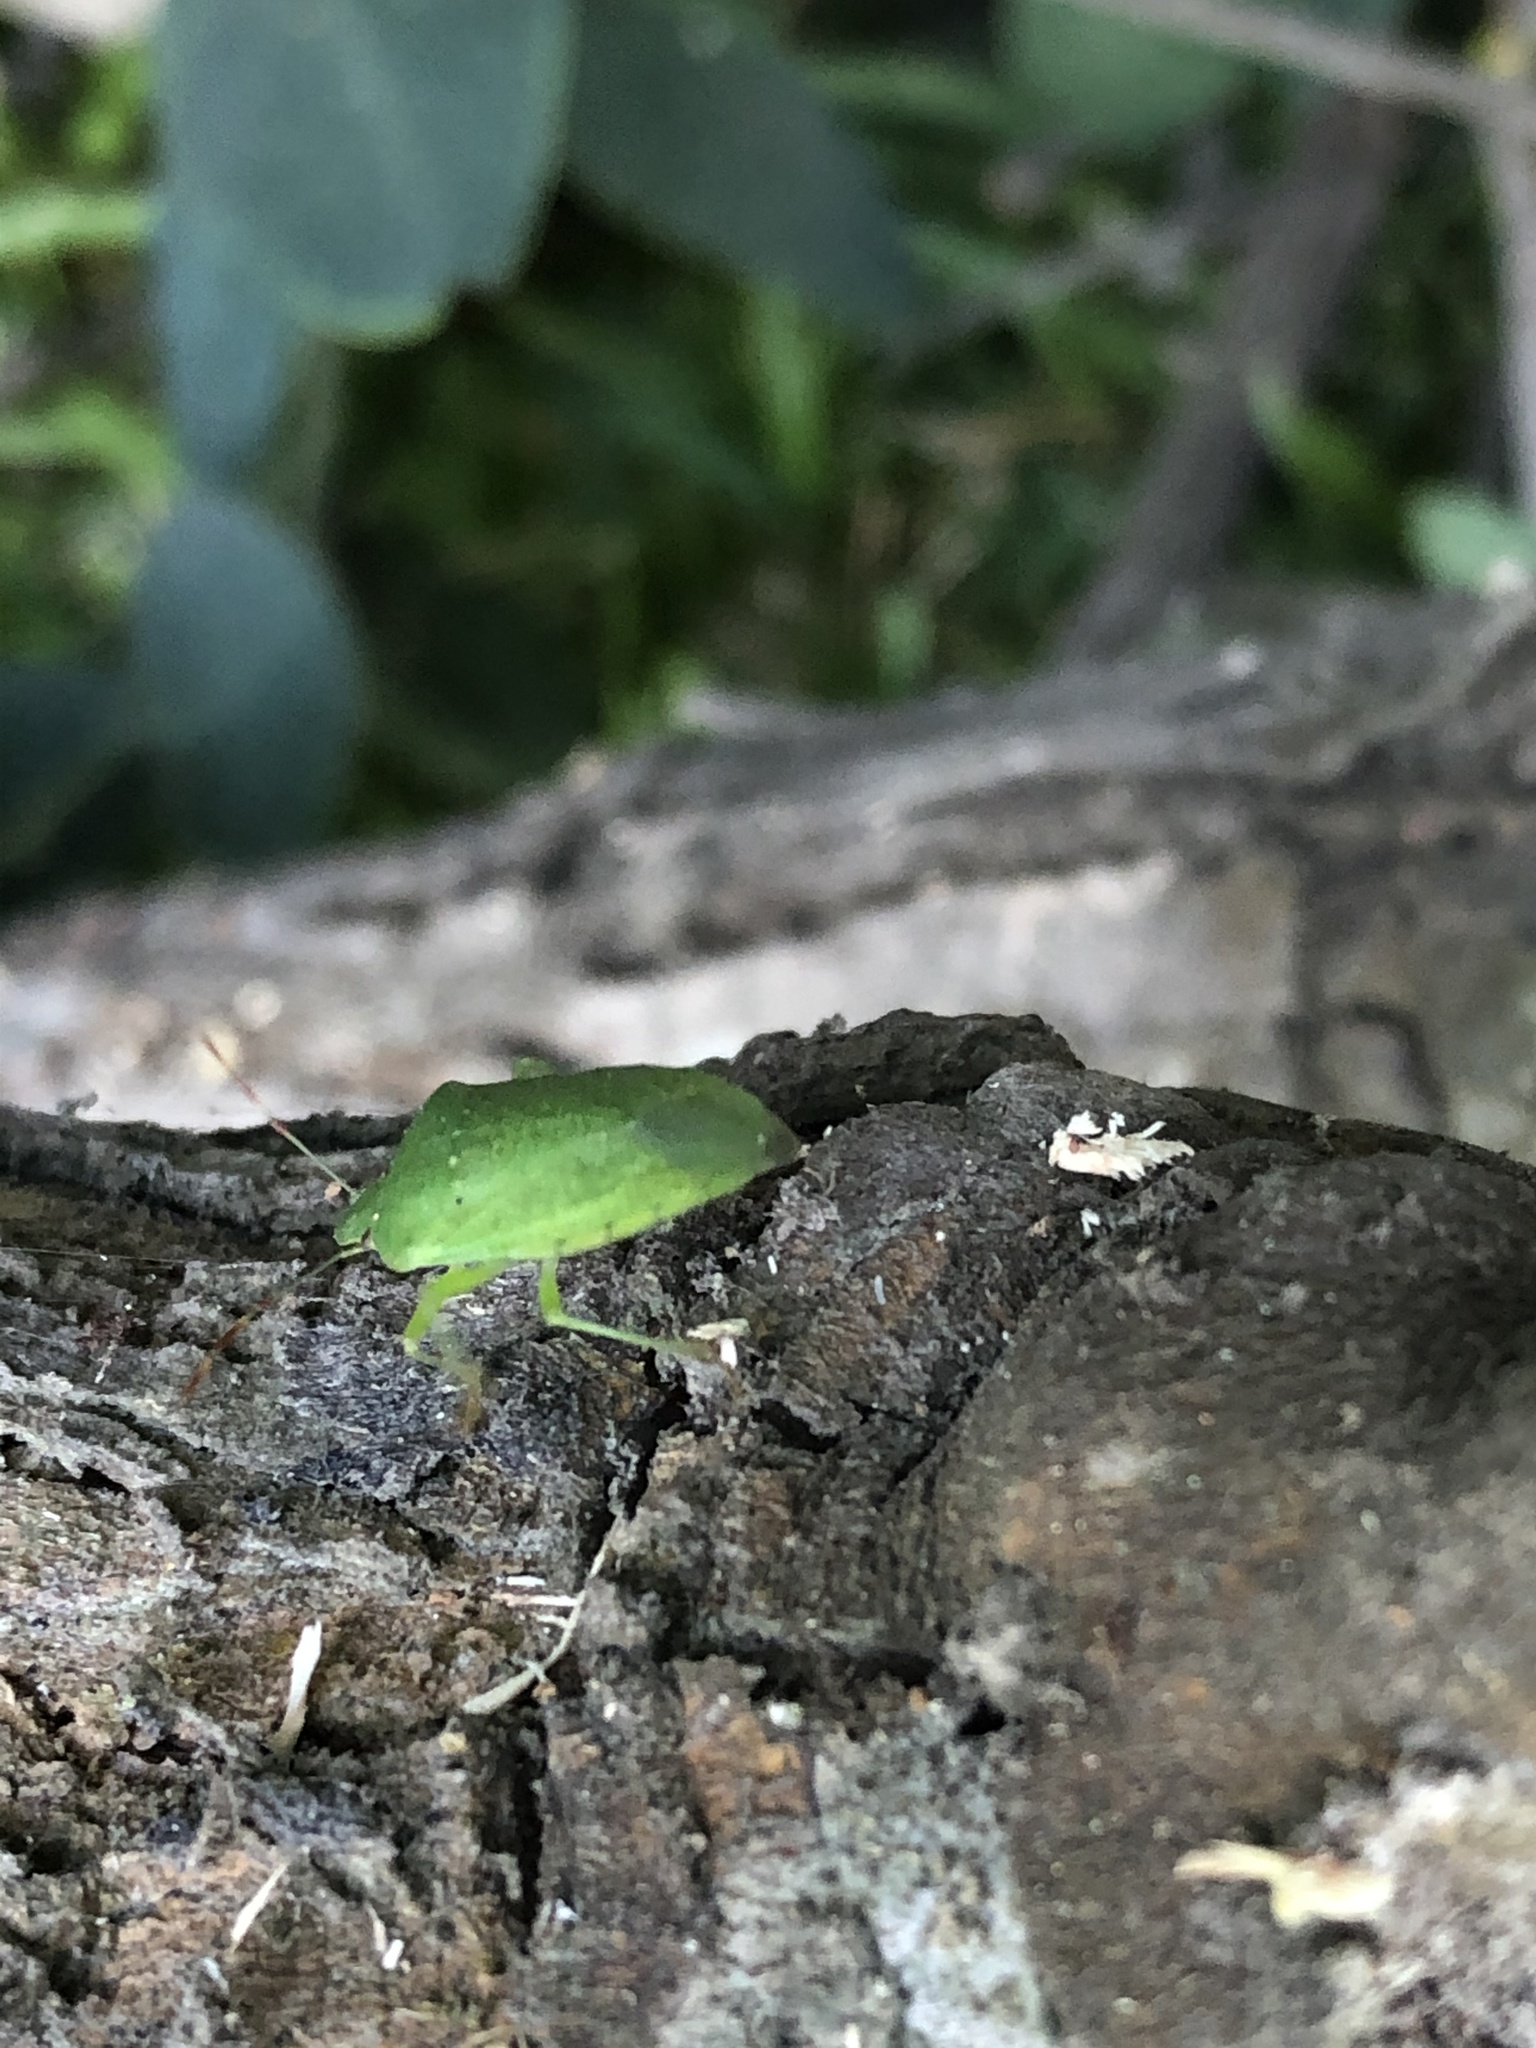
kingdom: Animalia
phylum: Arthropoda
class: Insecta
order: Hemiptera
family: Pentatomidae
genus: Nezara
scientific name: Nezara viridula
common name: Southern green stink bug
